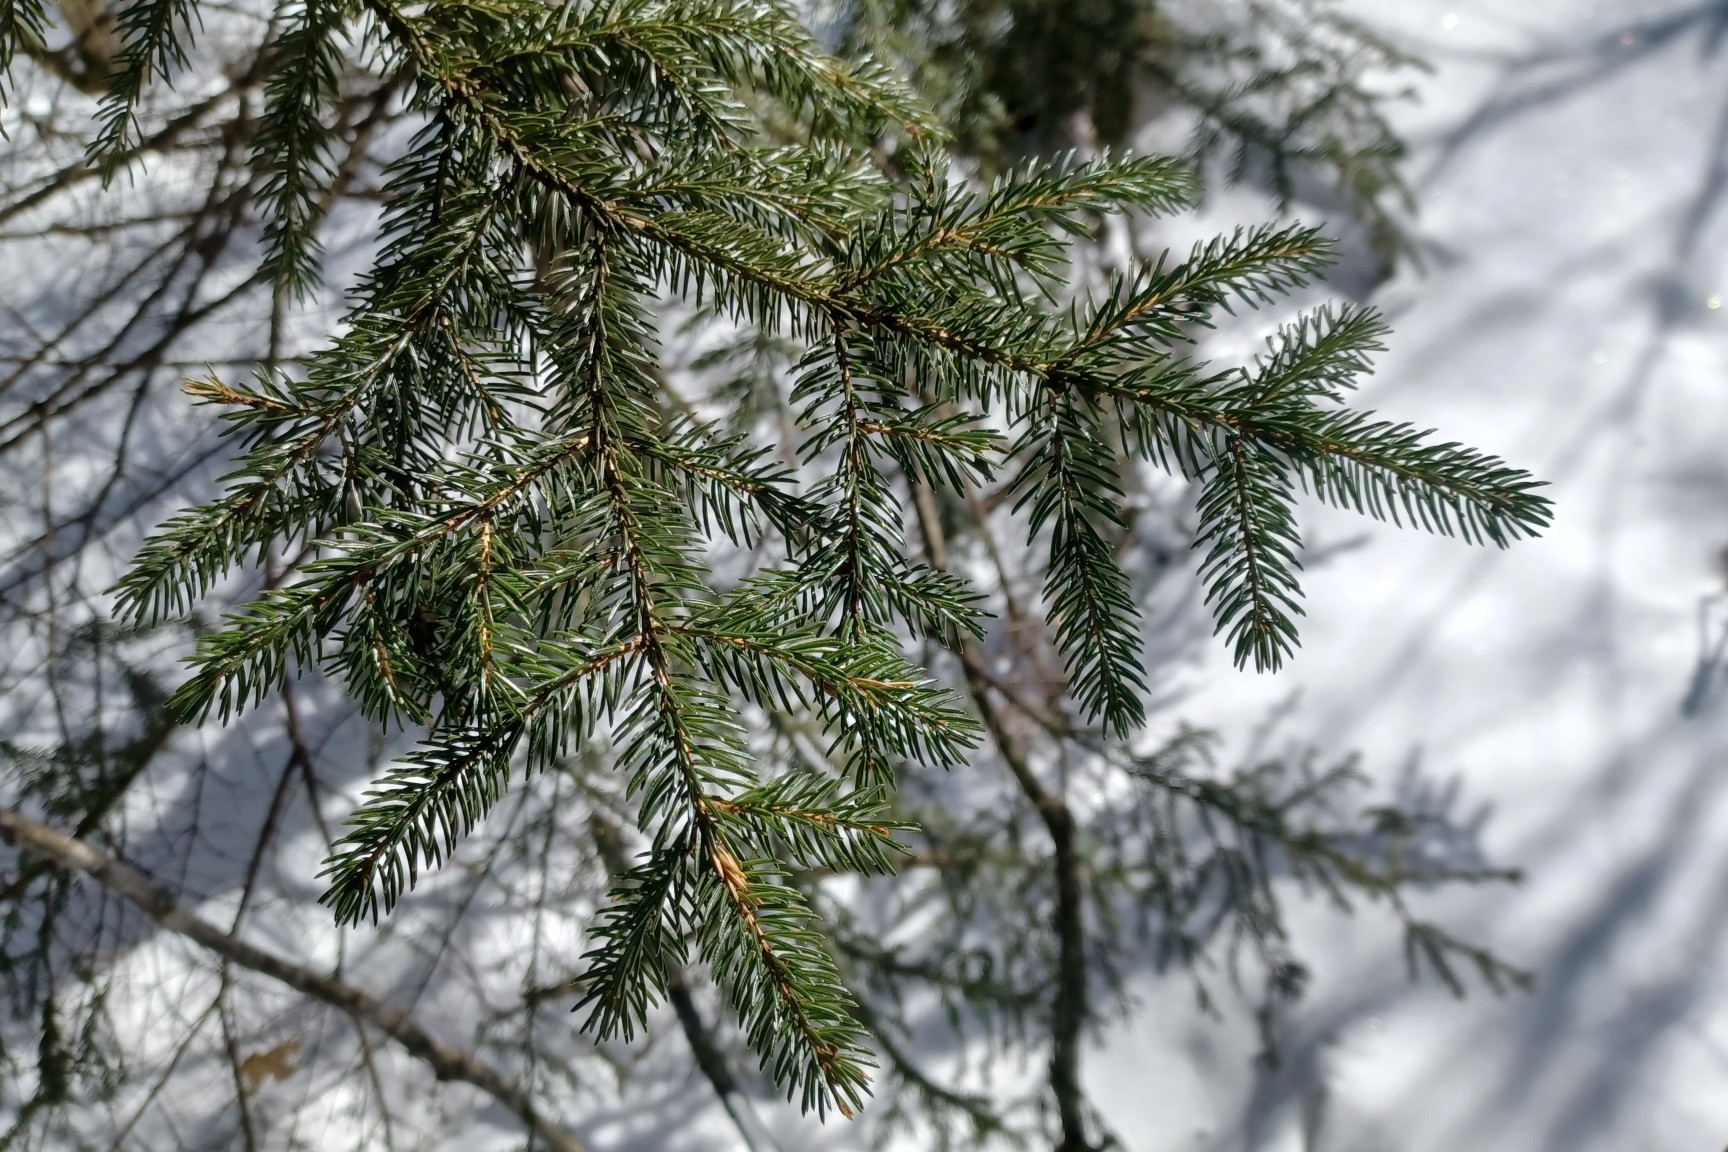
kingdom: Plantae
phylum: Tracheophyta
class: Pinopsida
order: Pinales
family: Pinaceae
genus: Picea
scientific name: Picea rubens
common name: Red spruce
